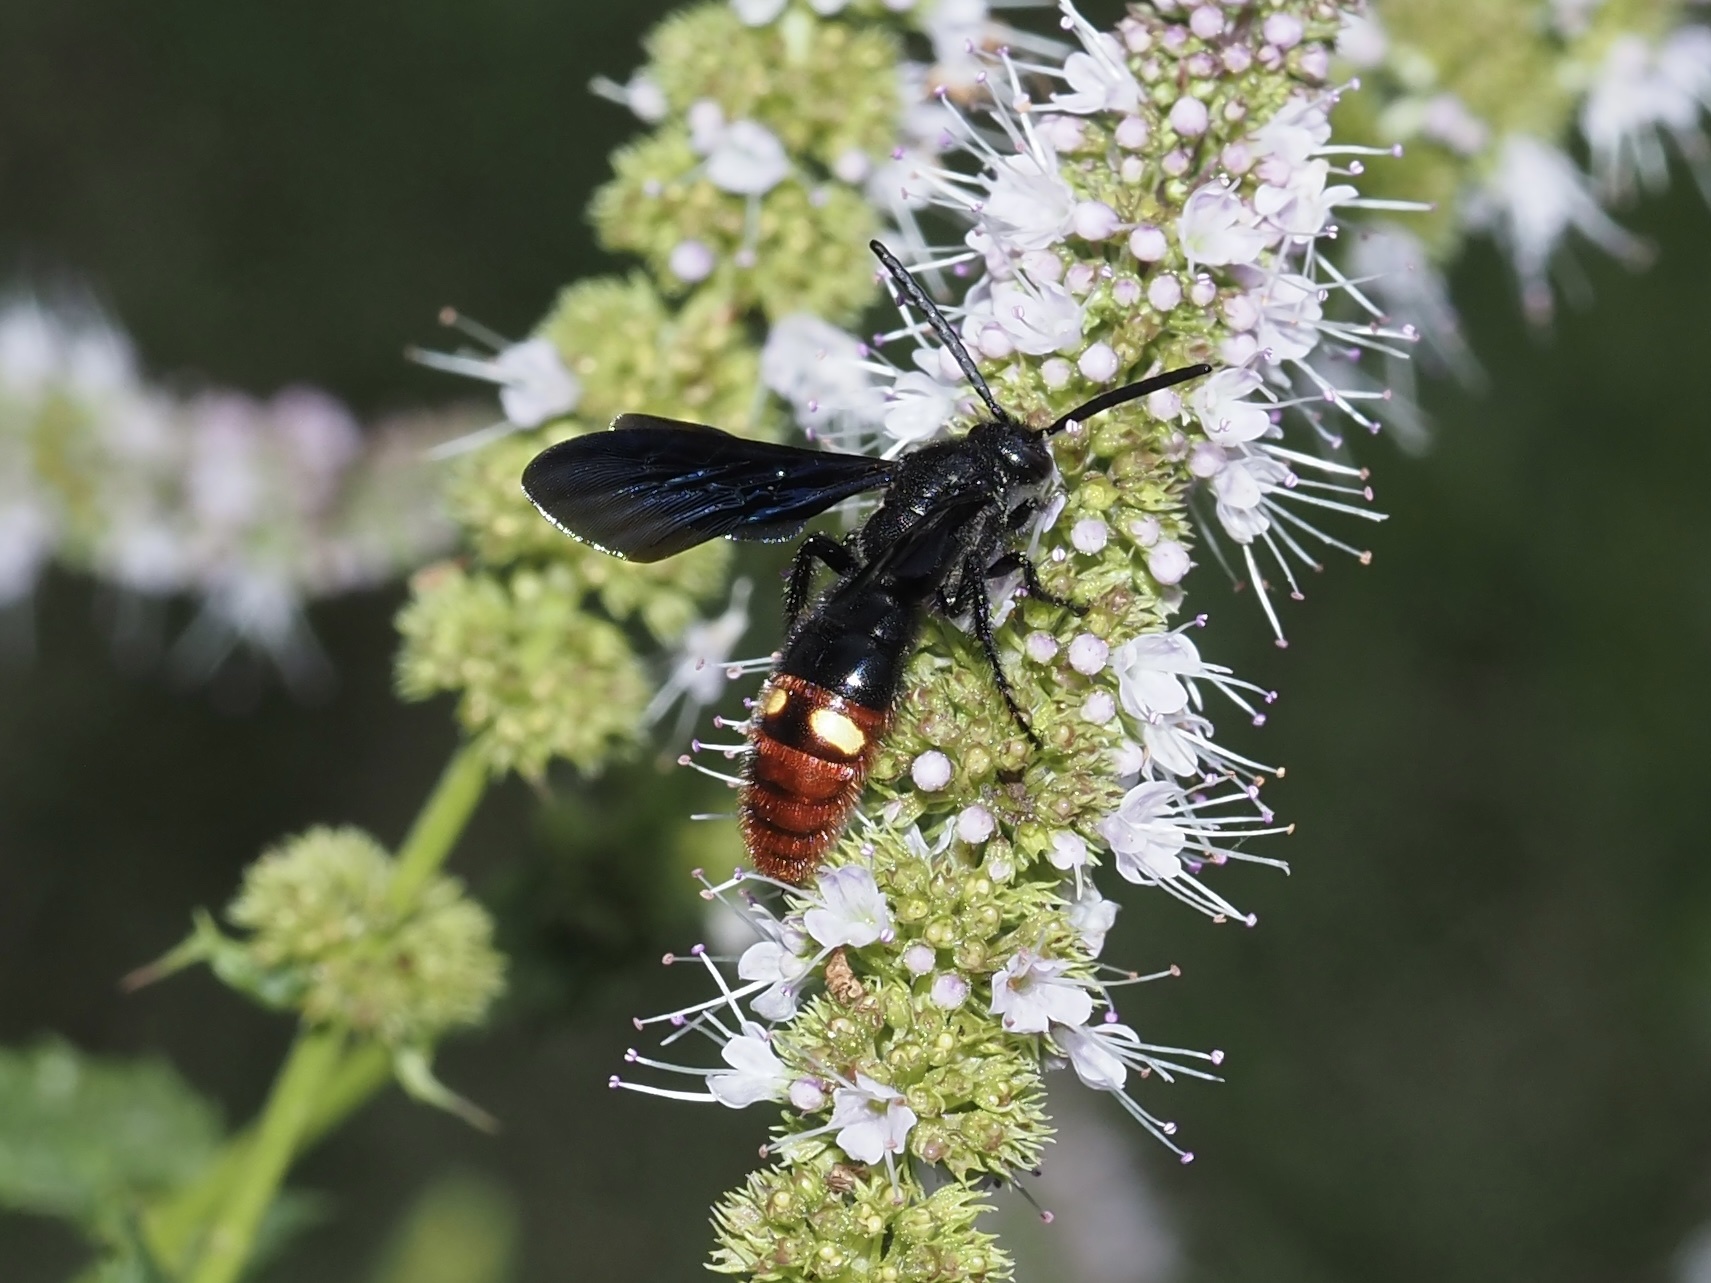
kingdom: Animalia
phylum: Arthropoda
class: Insecta
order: Hymenoptera
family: Scoliidae
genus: Scolia
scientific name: Scolia dubia
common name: Blue-winged scoliid wasp
